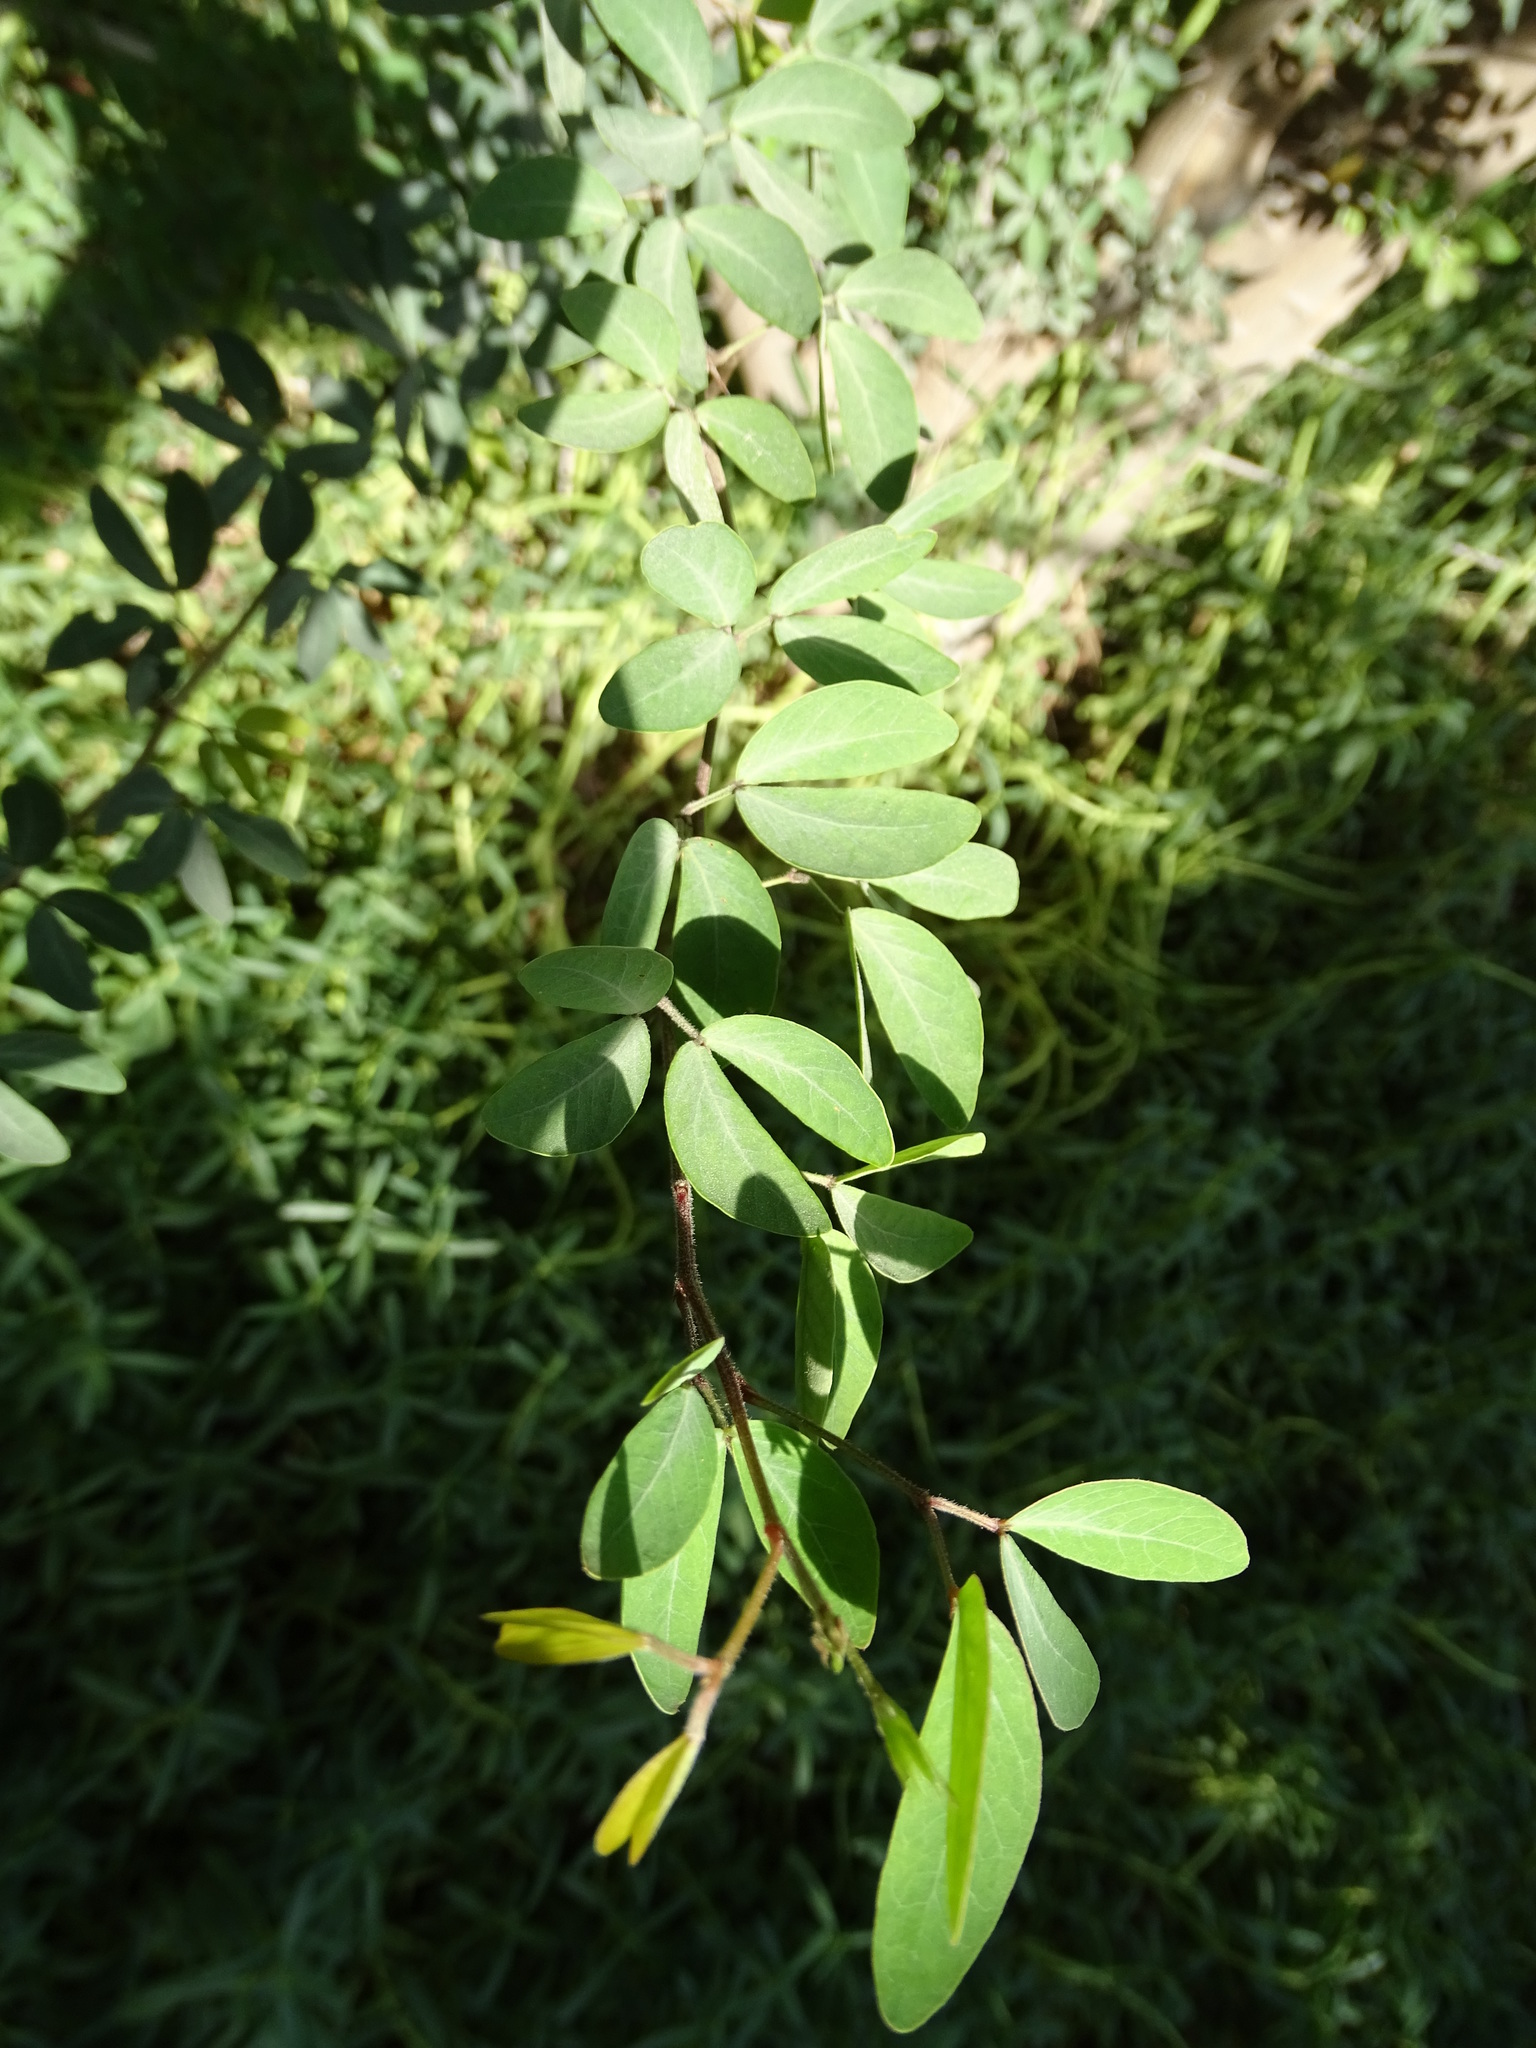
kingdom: Plantae
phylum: Tracheophyta
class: Magnoliopsida
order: Fabales
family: Fabaceae
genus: Pithecellobium
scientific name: Pithecellobium dulce
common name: Monkeypod
